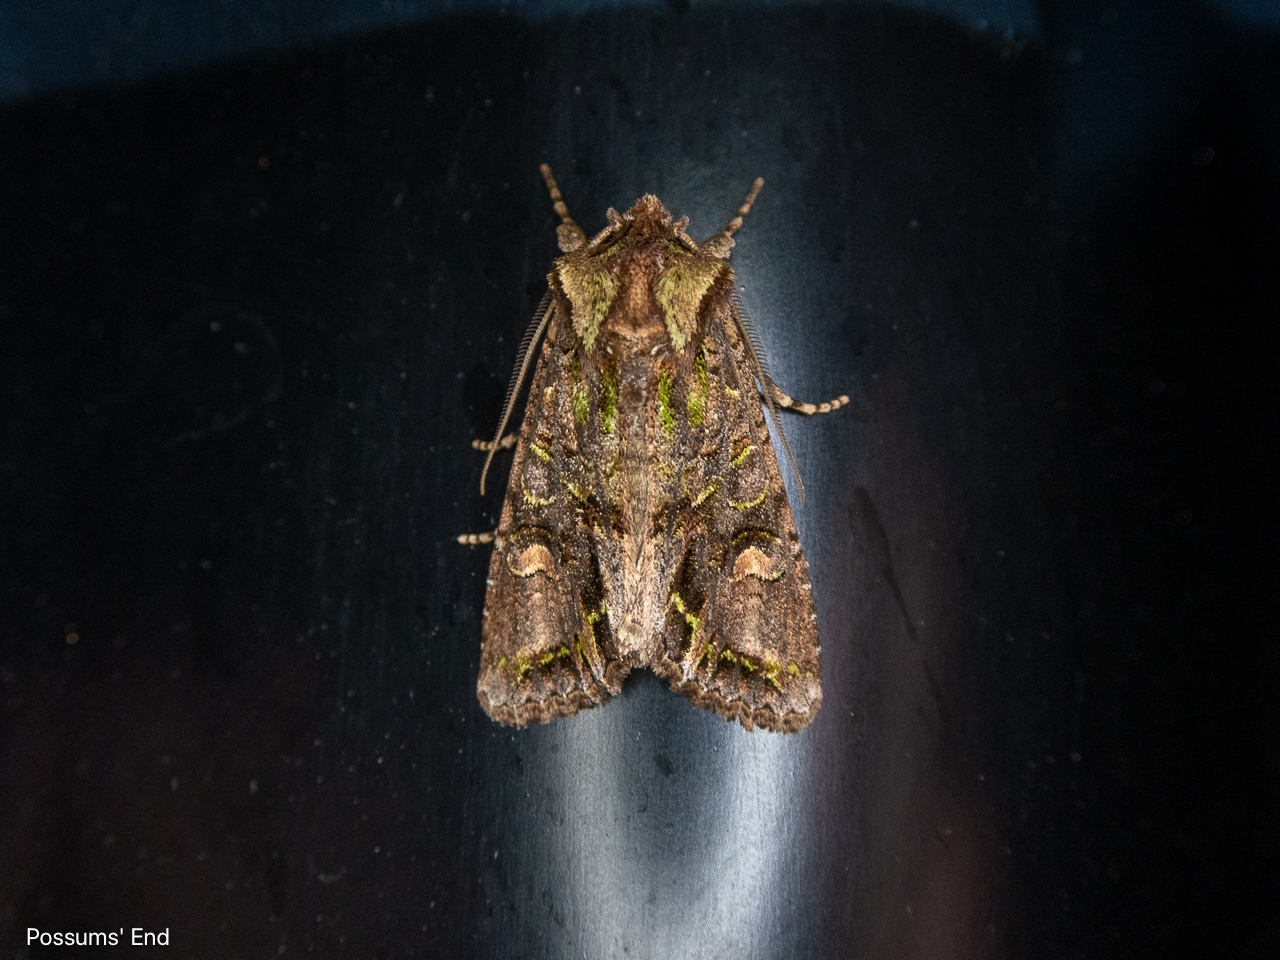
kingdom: Animalia
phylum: Arthropoda
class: Insecta
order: Lepidoptera
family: Noctuidae
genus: Ichneutica
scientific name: Ichneutica insignis
